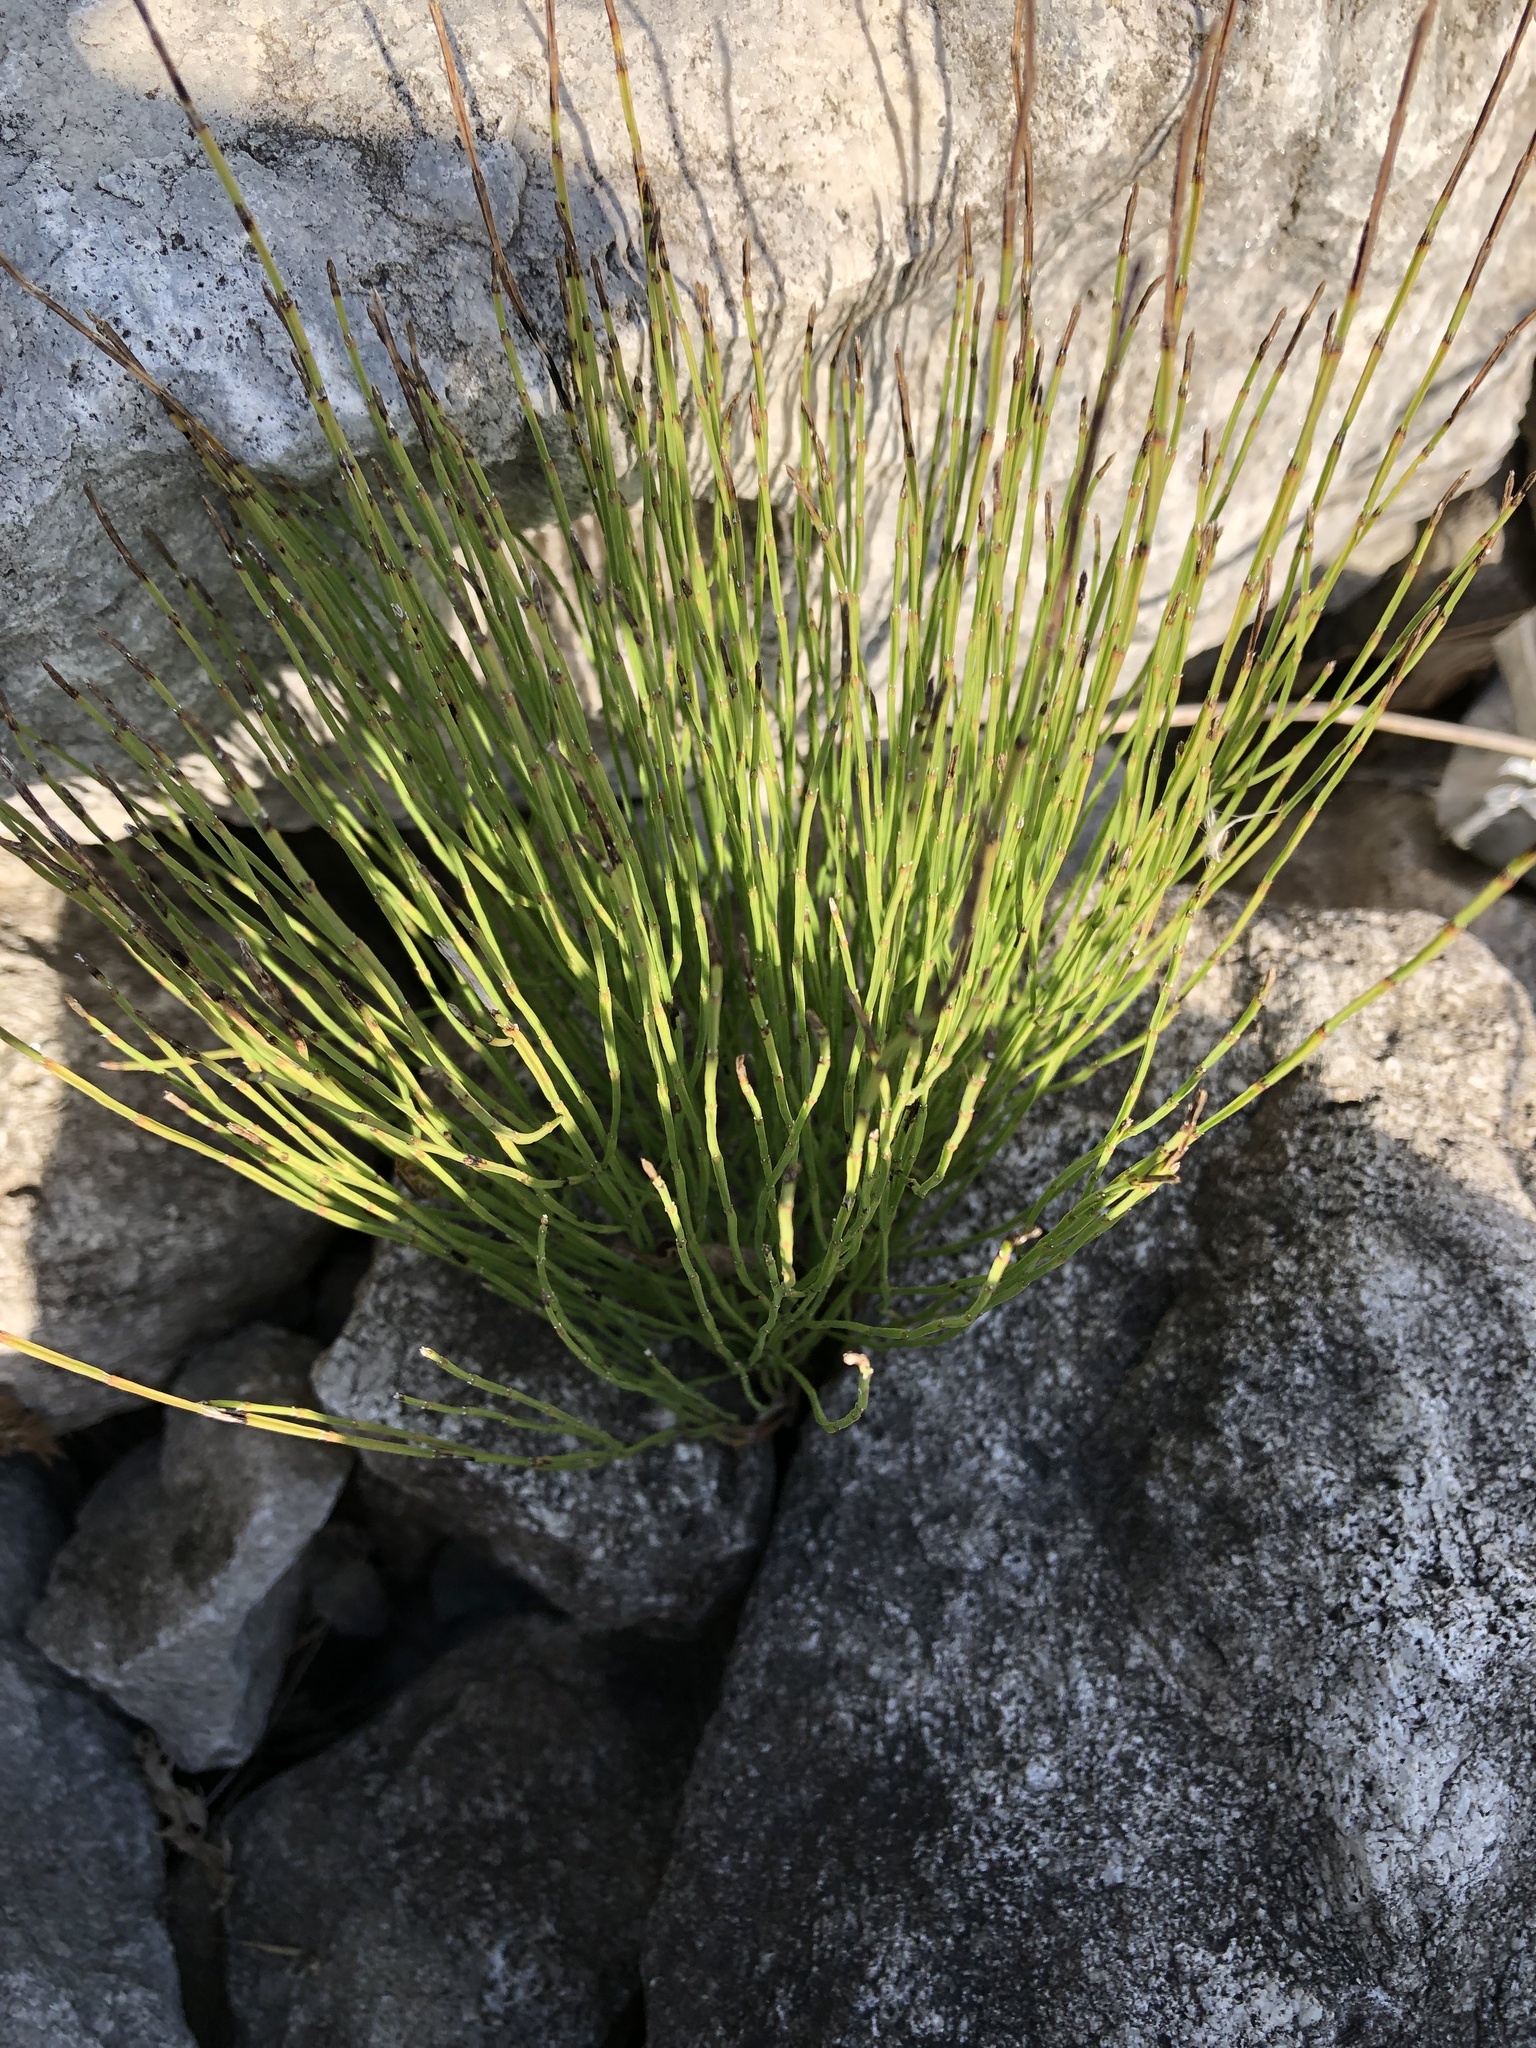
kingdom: Plantae
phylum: Tracheophyta
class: Polypodiopsida
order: Equisetales
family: Equisetaceae
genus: Equisetum
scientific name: Equisetum arvense
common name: Field horsetail
